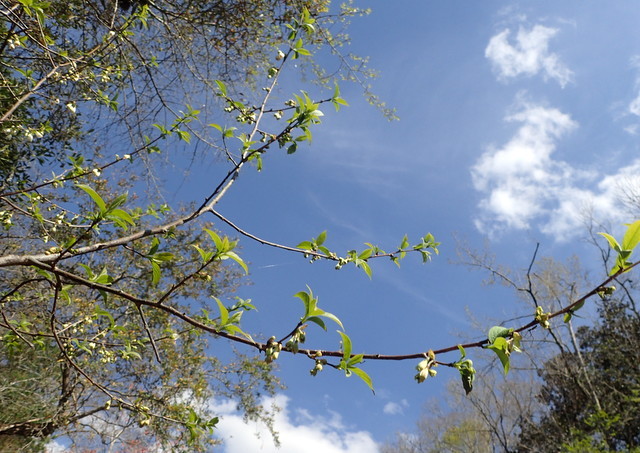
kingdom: Plantae
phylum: Tracheophyta
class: Magnoliopsida
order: Ericales
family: Styracaceae
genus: Halesia
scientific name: Halesia carolina
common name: Carolina silverbell
